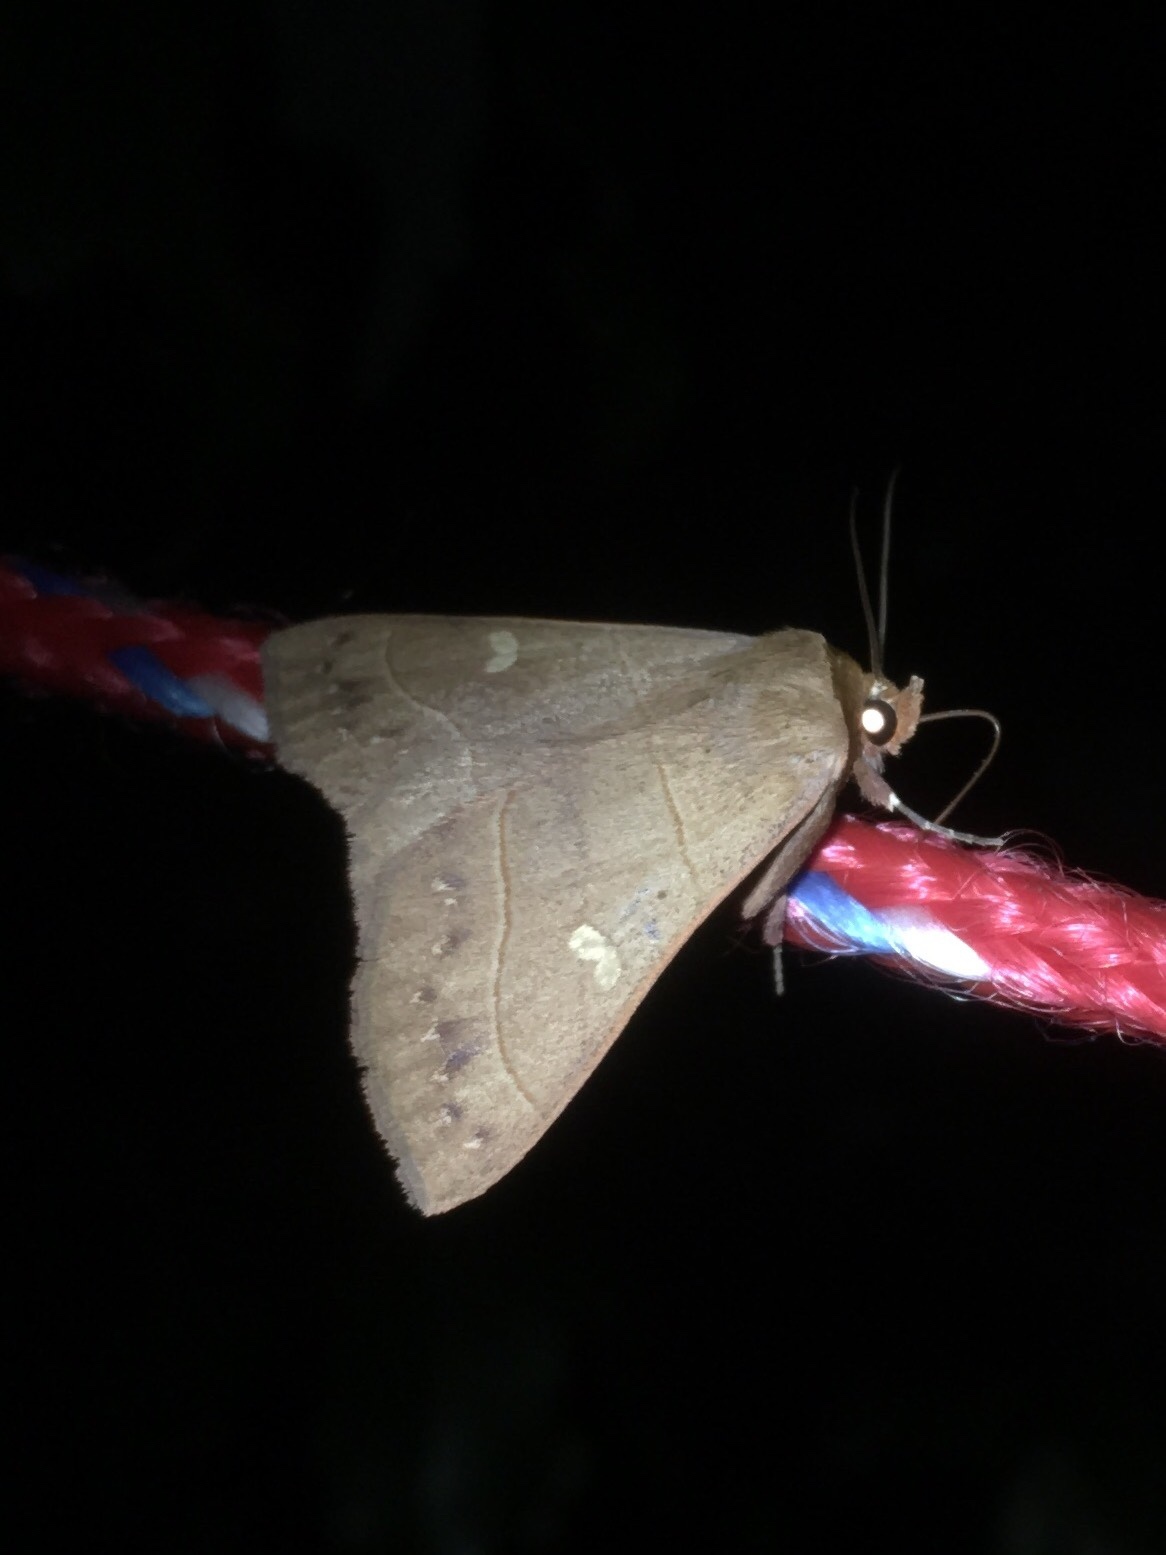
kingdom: Animalia
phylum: Arthropoda
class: Insecta
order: Lepidoptera
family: Erebidae
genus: Panopoda
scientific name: Panopoda rufimargo
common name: Red-lined panopoda moth
